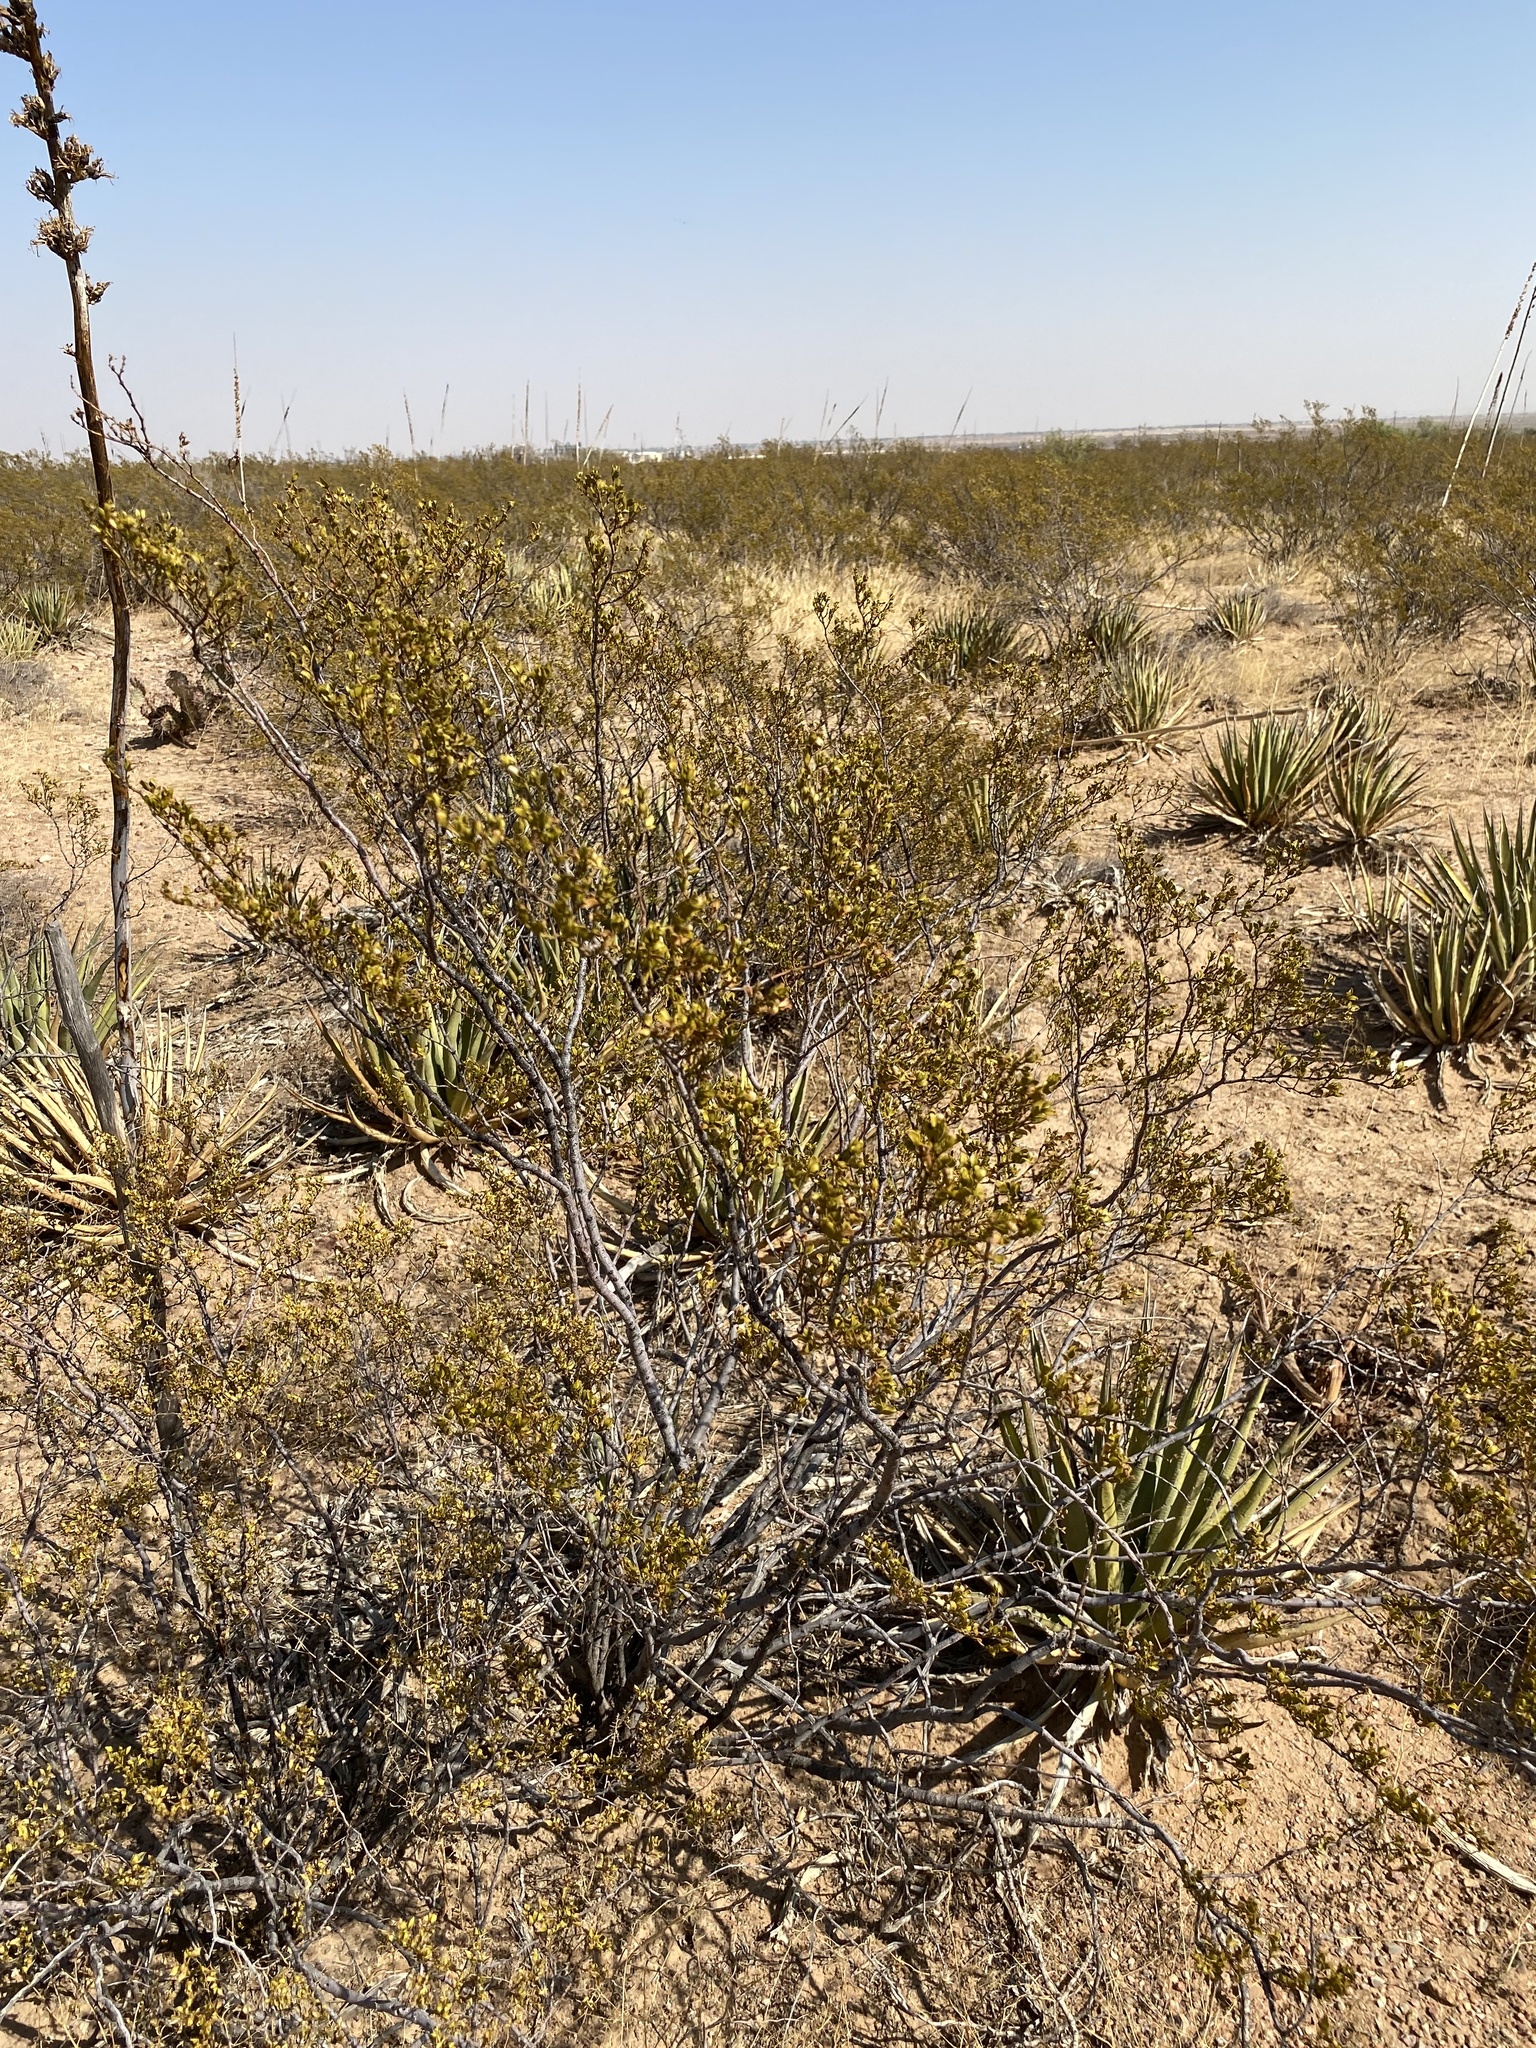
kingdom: Plantae
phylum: Tracheophyta
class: Magnoliopsida
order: Zygophyllales
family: Zygophyllaceae
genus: Larrea
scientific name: Larrea tridentata
